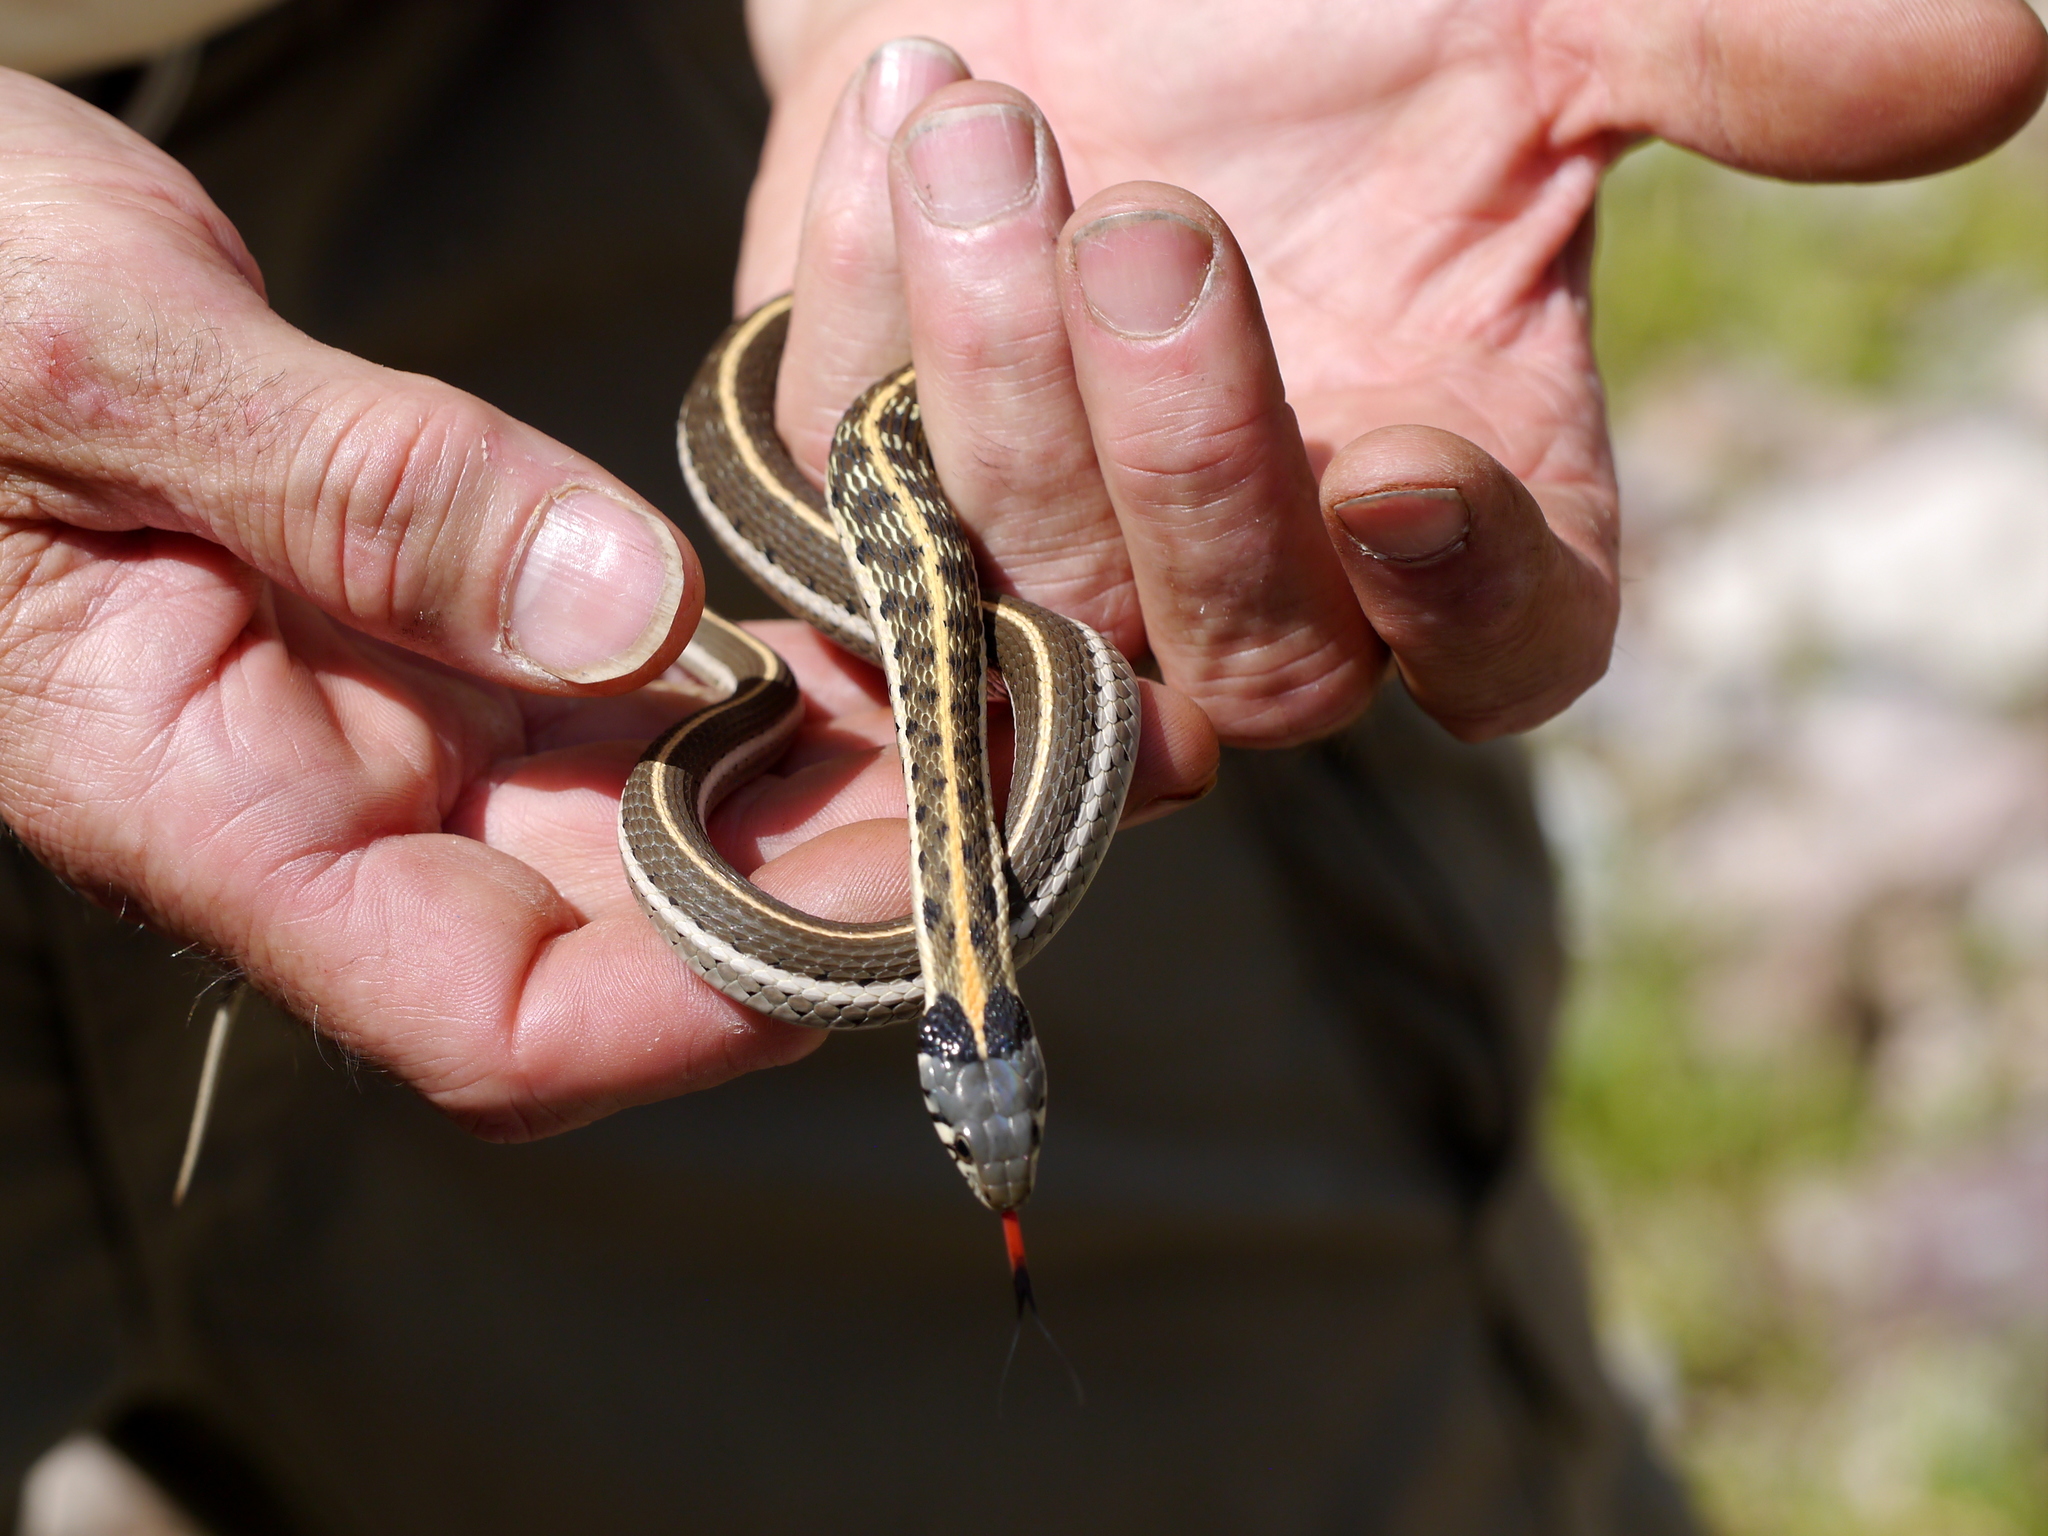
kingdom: Animalia
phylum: Chordata
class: Squamata
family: Colubridae
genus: Thamnophis
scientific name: Thamnophis cyrtopsis
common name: Black-necked gartersnake
